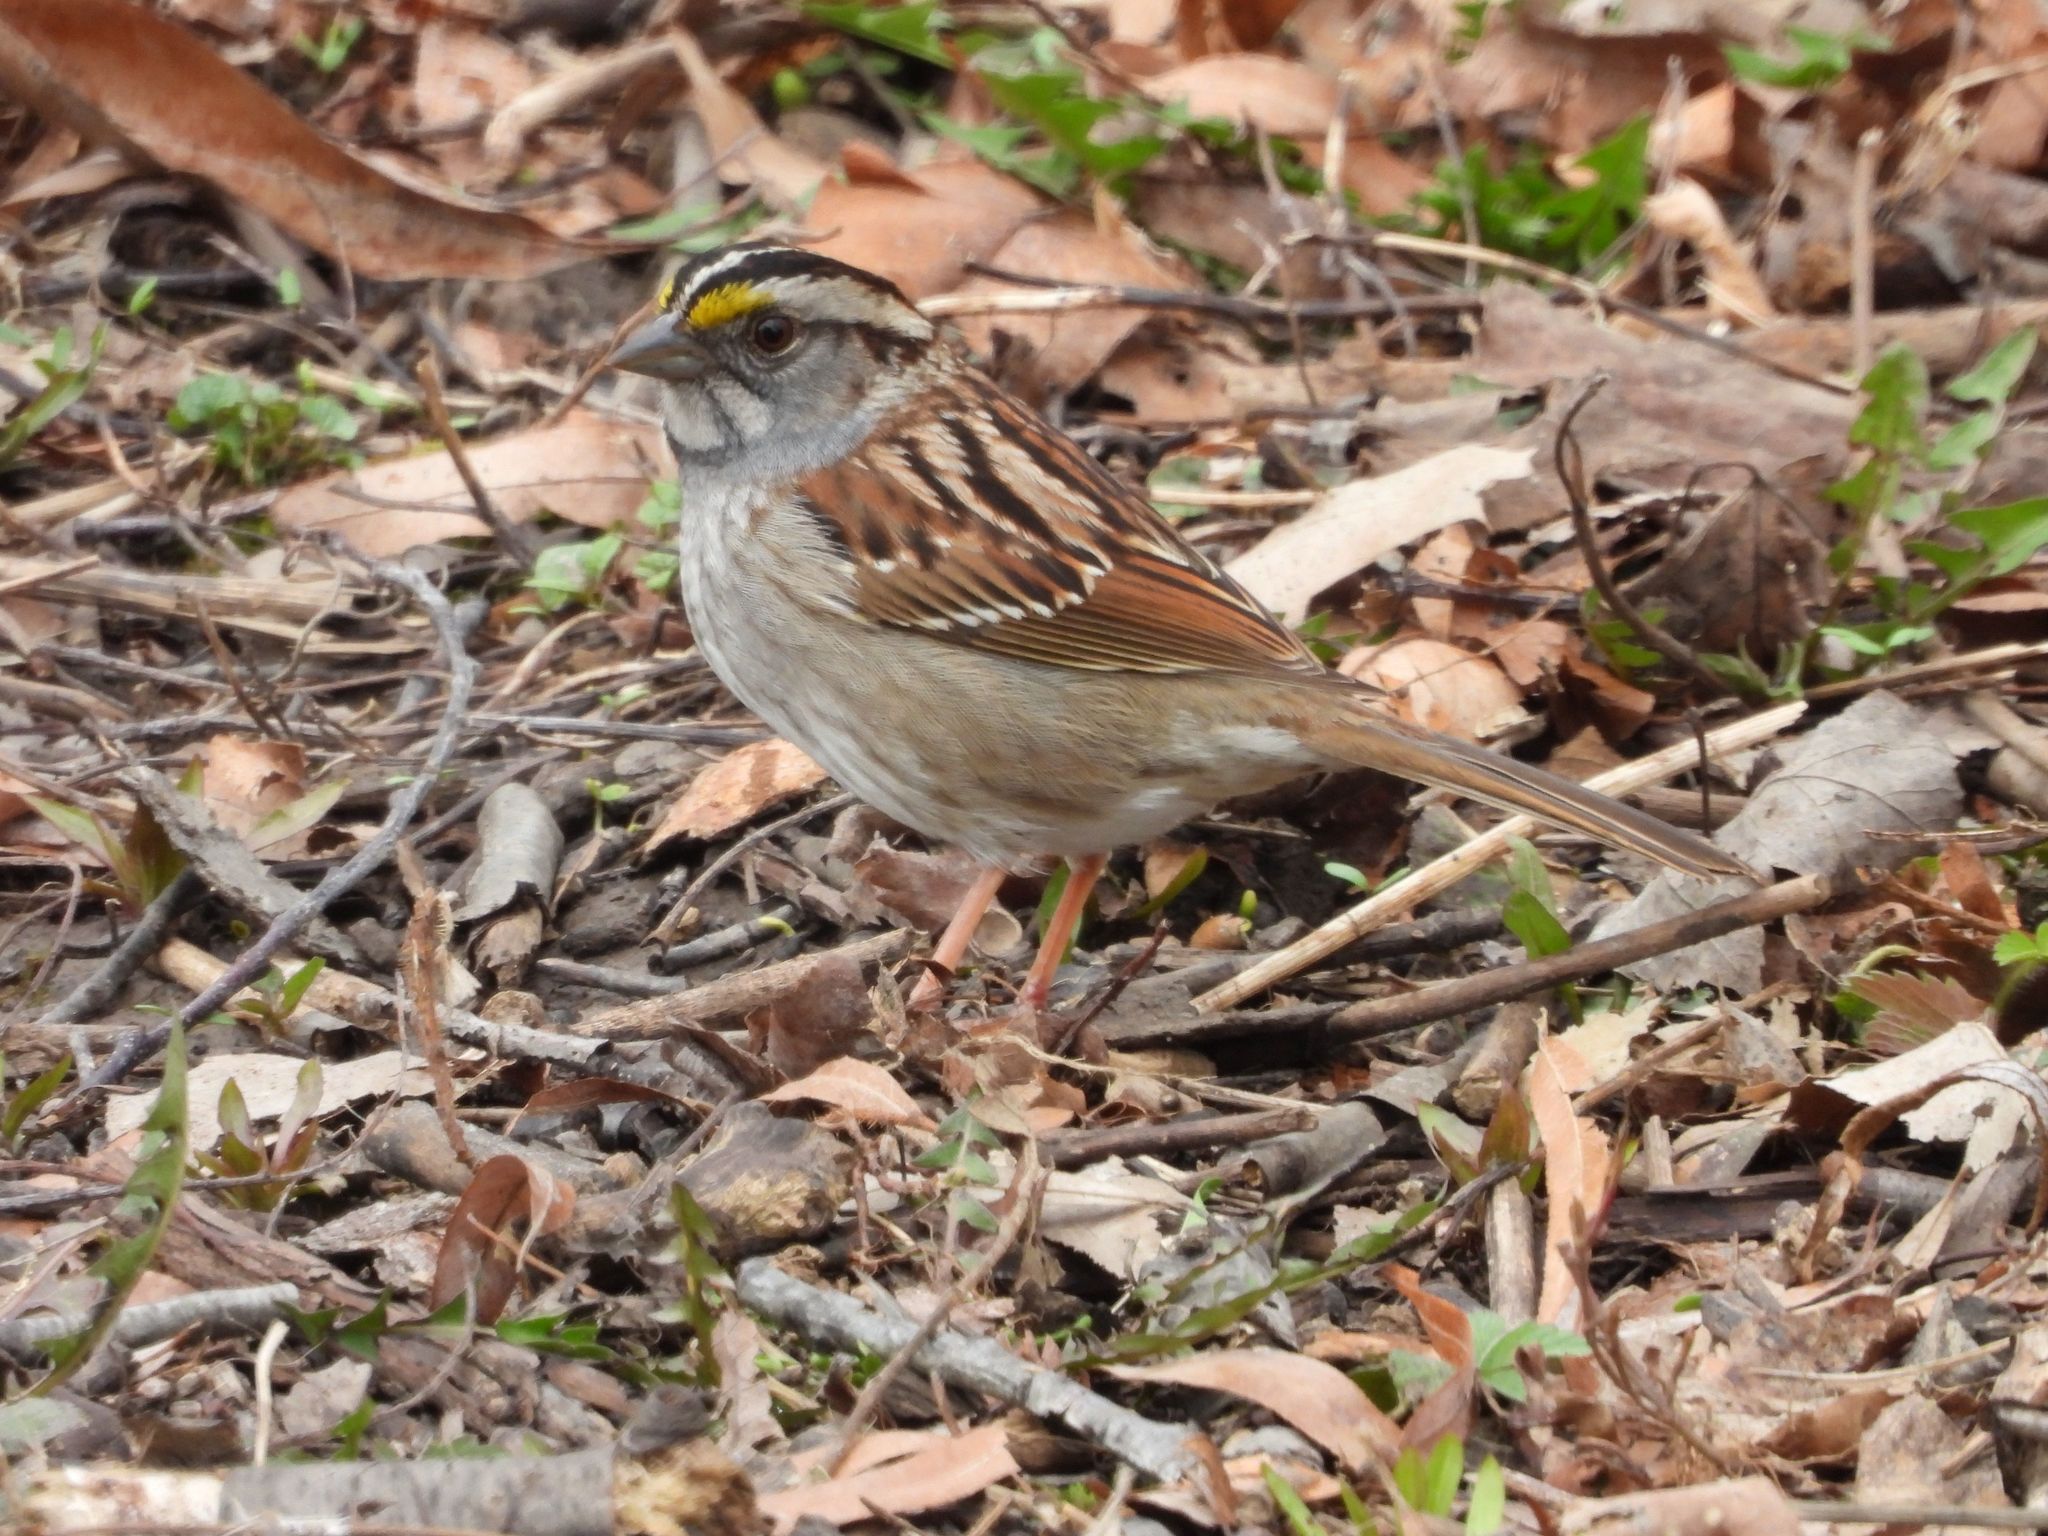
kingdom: Animalia
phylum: Chordata
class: Aves
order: Passeriformes
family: Passerellidae
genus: Zonotrichia
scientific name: Zonotrichia albicollis
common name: White-throated sparrow
